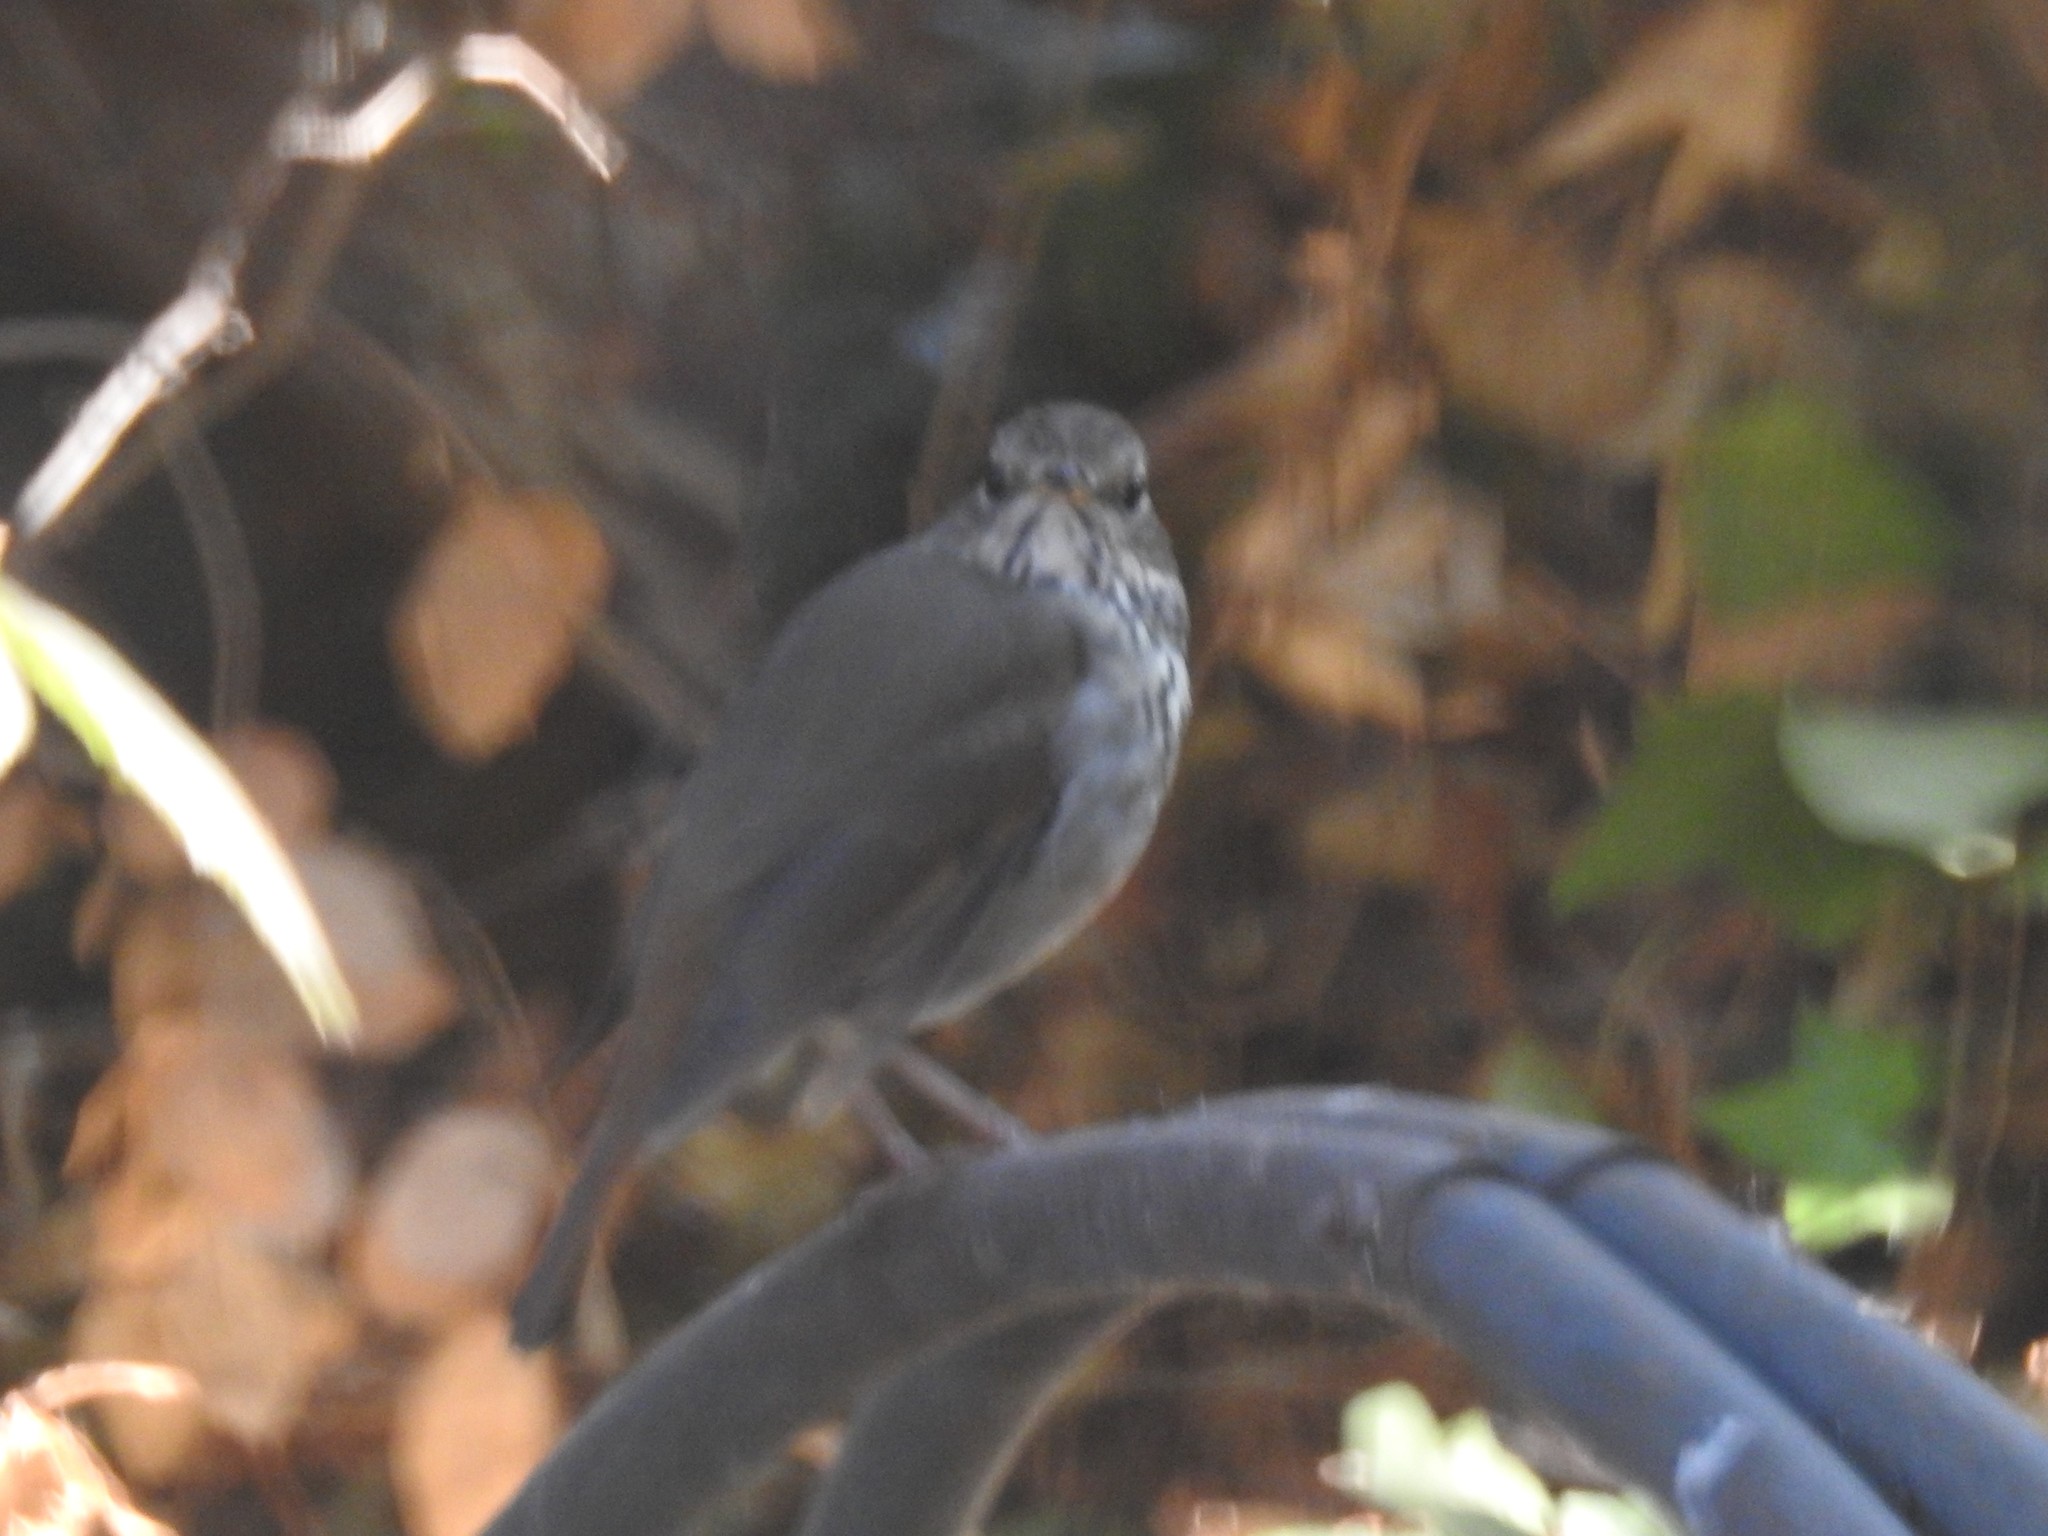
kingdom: Animalia
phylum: Chordata
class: Aves
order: Passeriformes
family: Turdidae
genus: Catharus
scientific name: Catharus guttatus
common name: Hermit thrush
